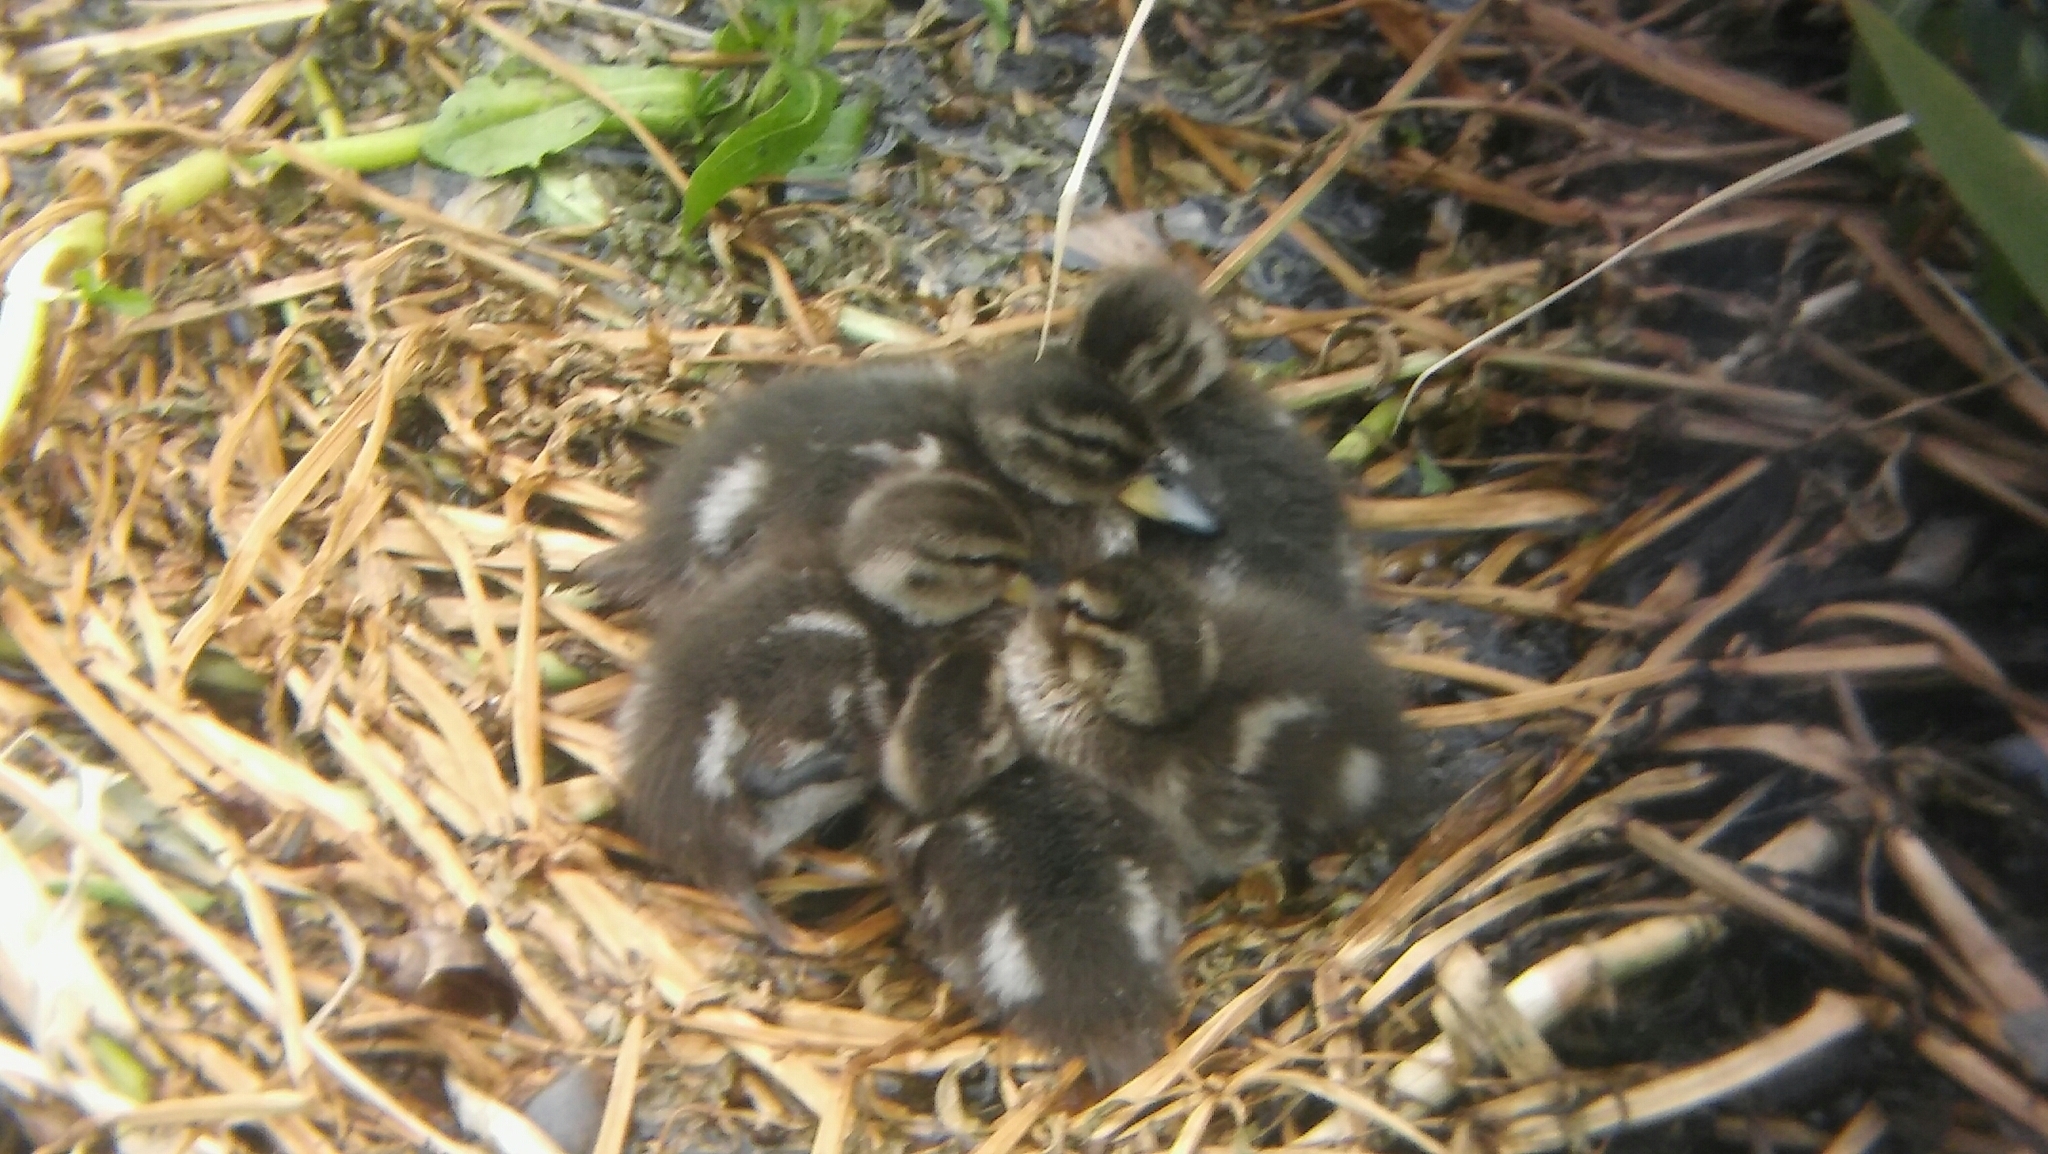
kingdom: Animalia
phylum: Chordata
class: Aves
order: Anseriformes
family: Anatidae
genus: Anas
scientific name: Anas flavirostris
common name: Yellow-billed teal
